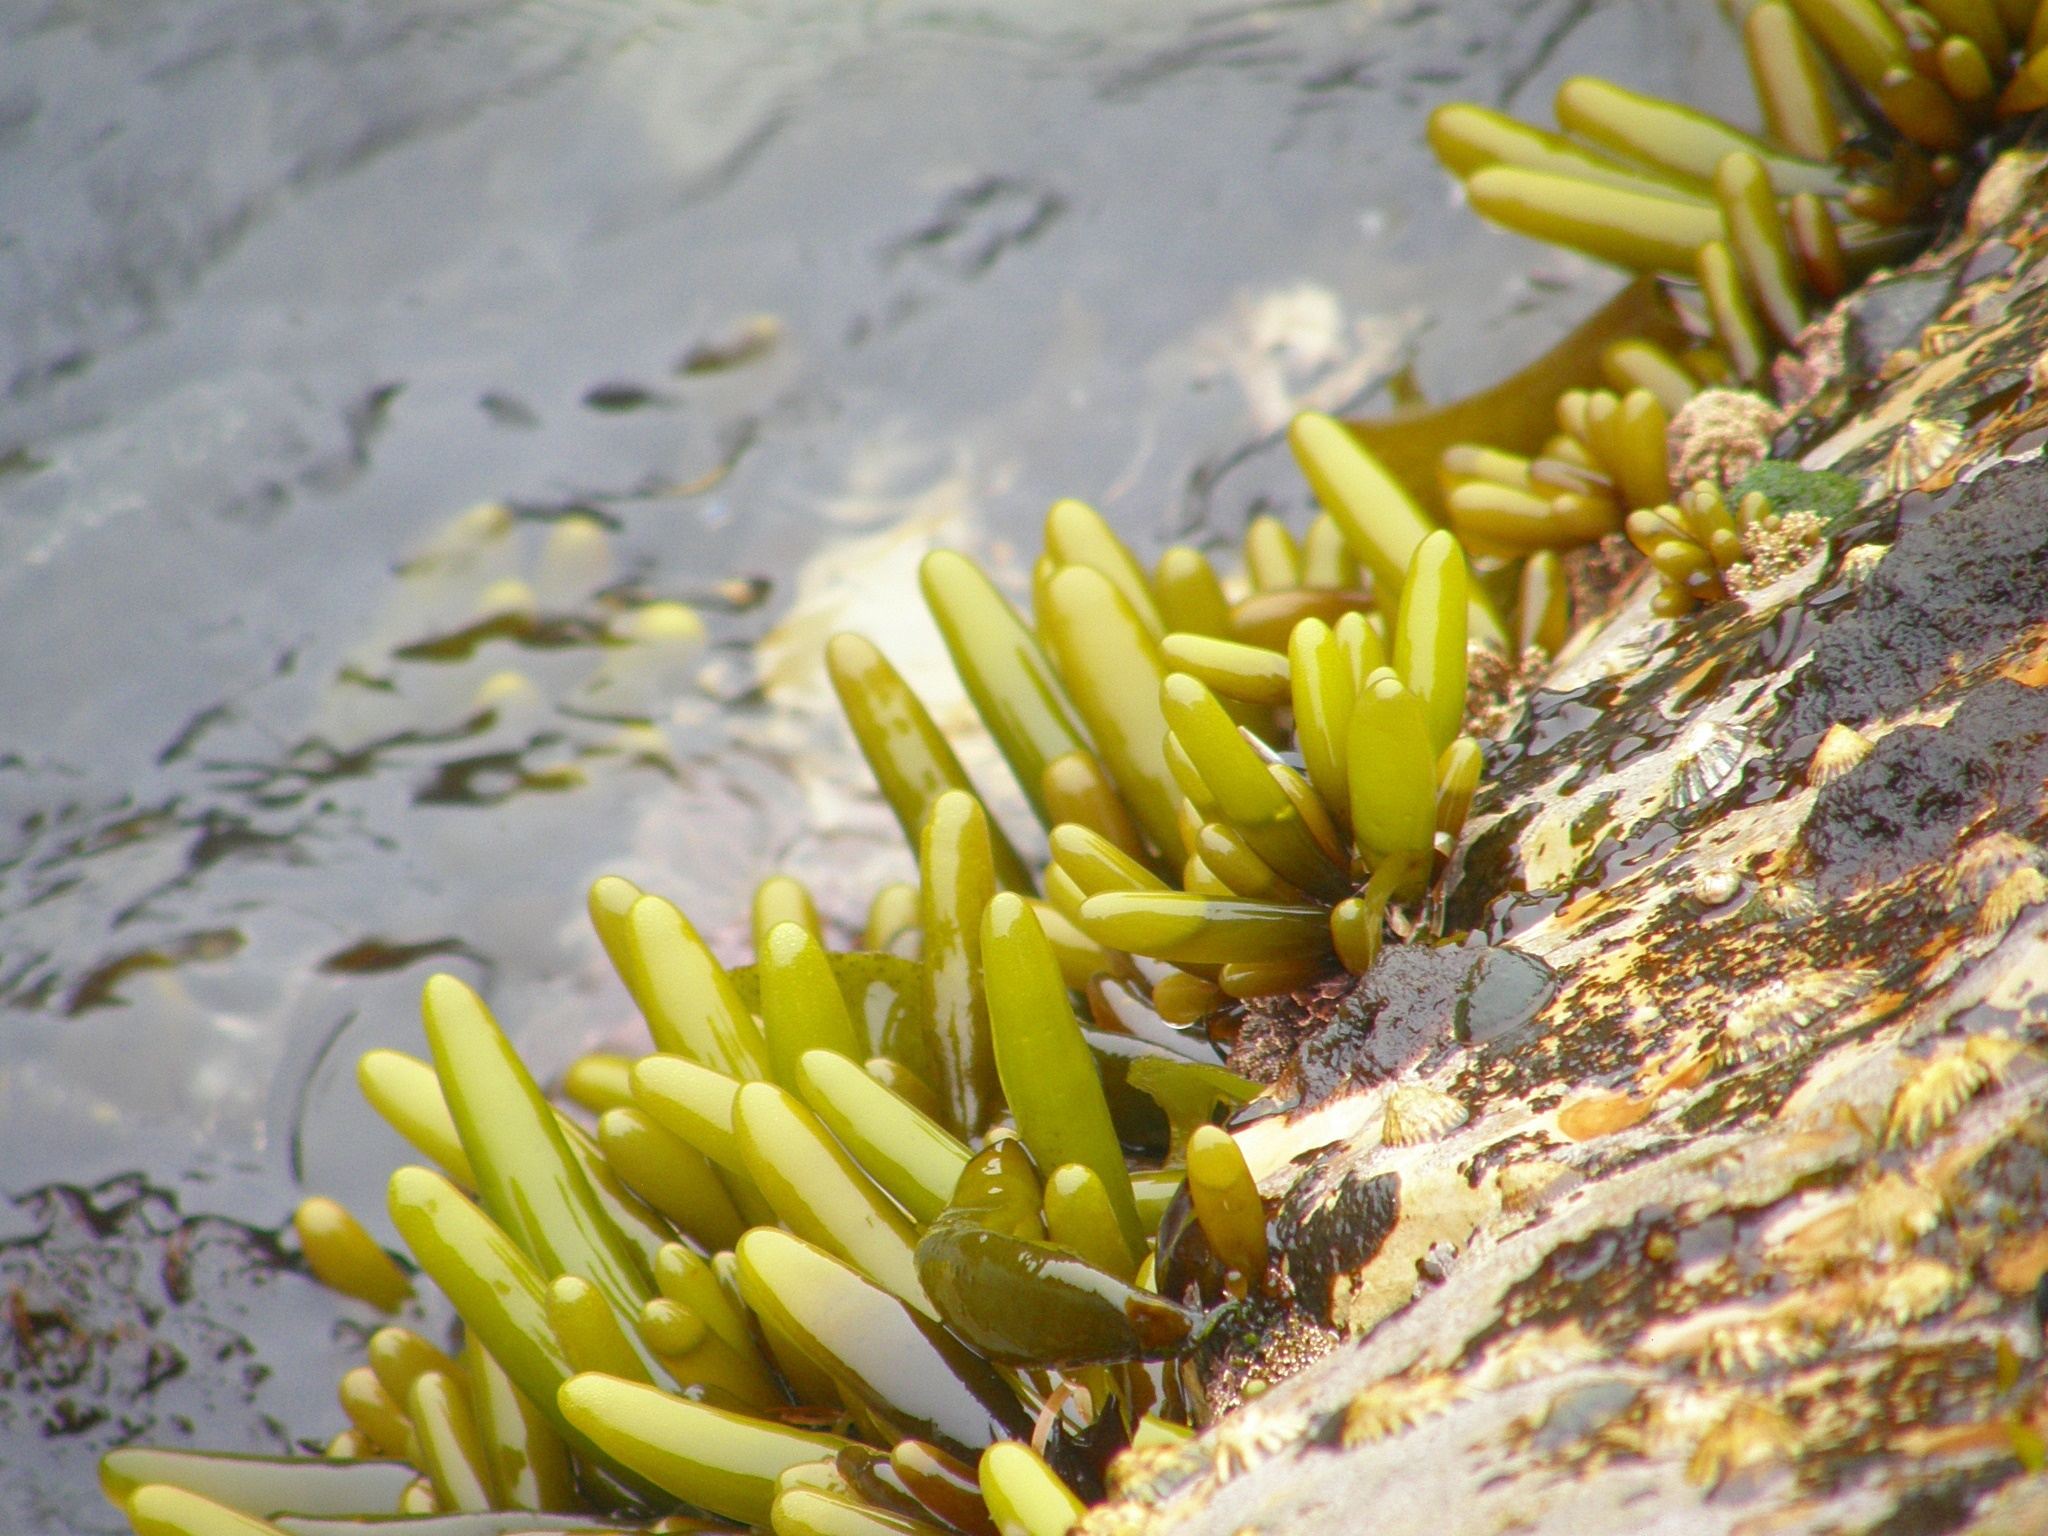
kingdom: Plantae
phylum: Rhodophyta
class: Florideophyceae
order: Palmariales
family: Palmariaceae
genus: Halosaccion
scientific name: Halosaccion glandiforme
